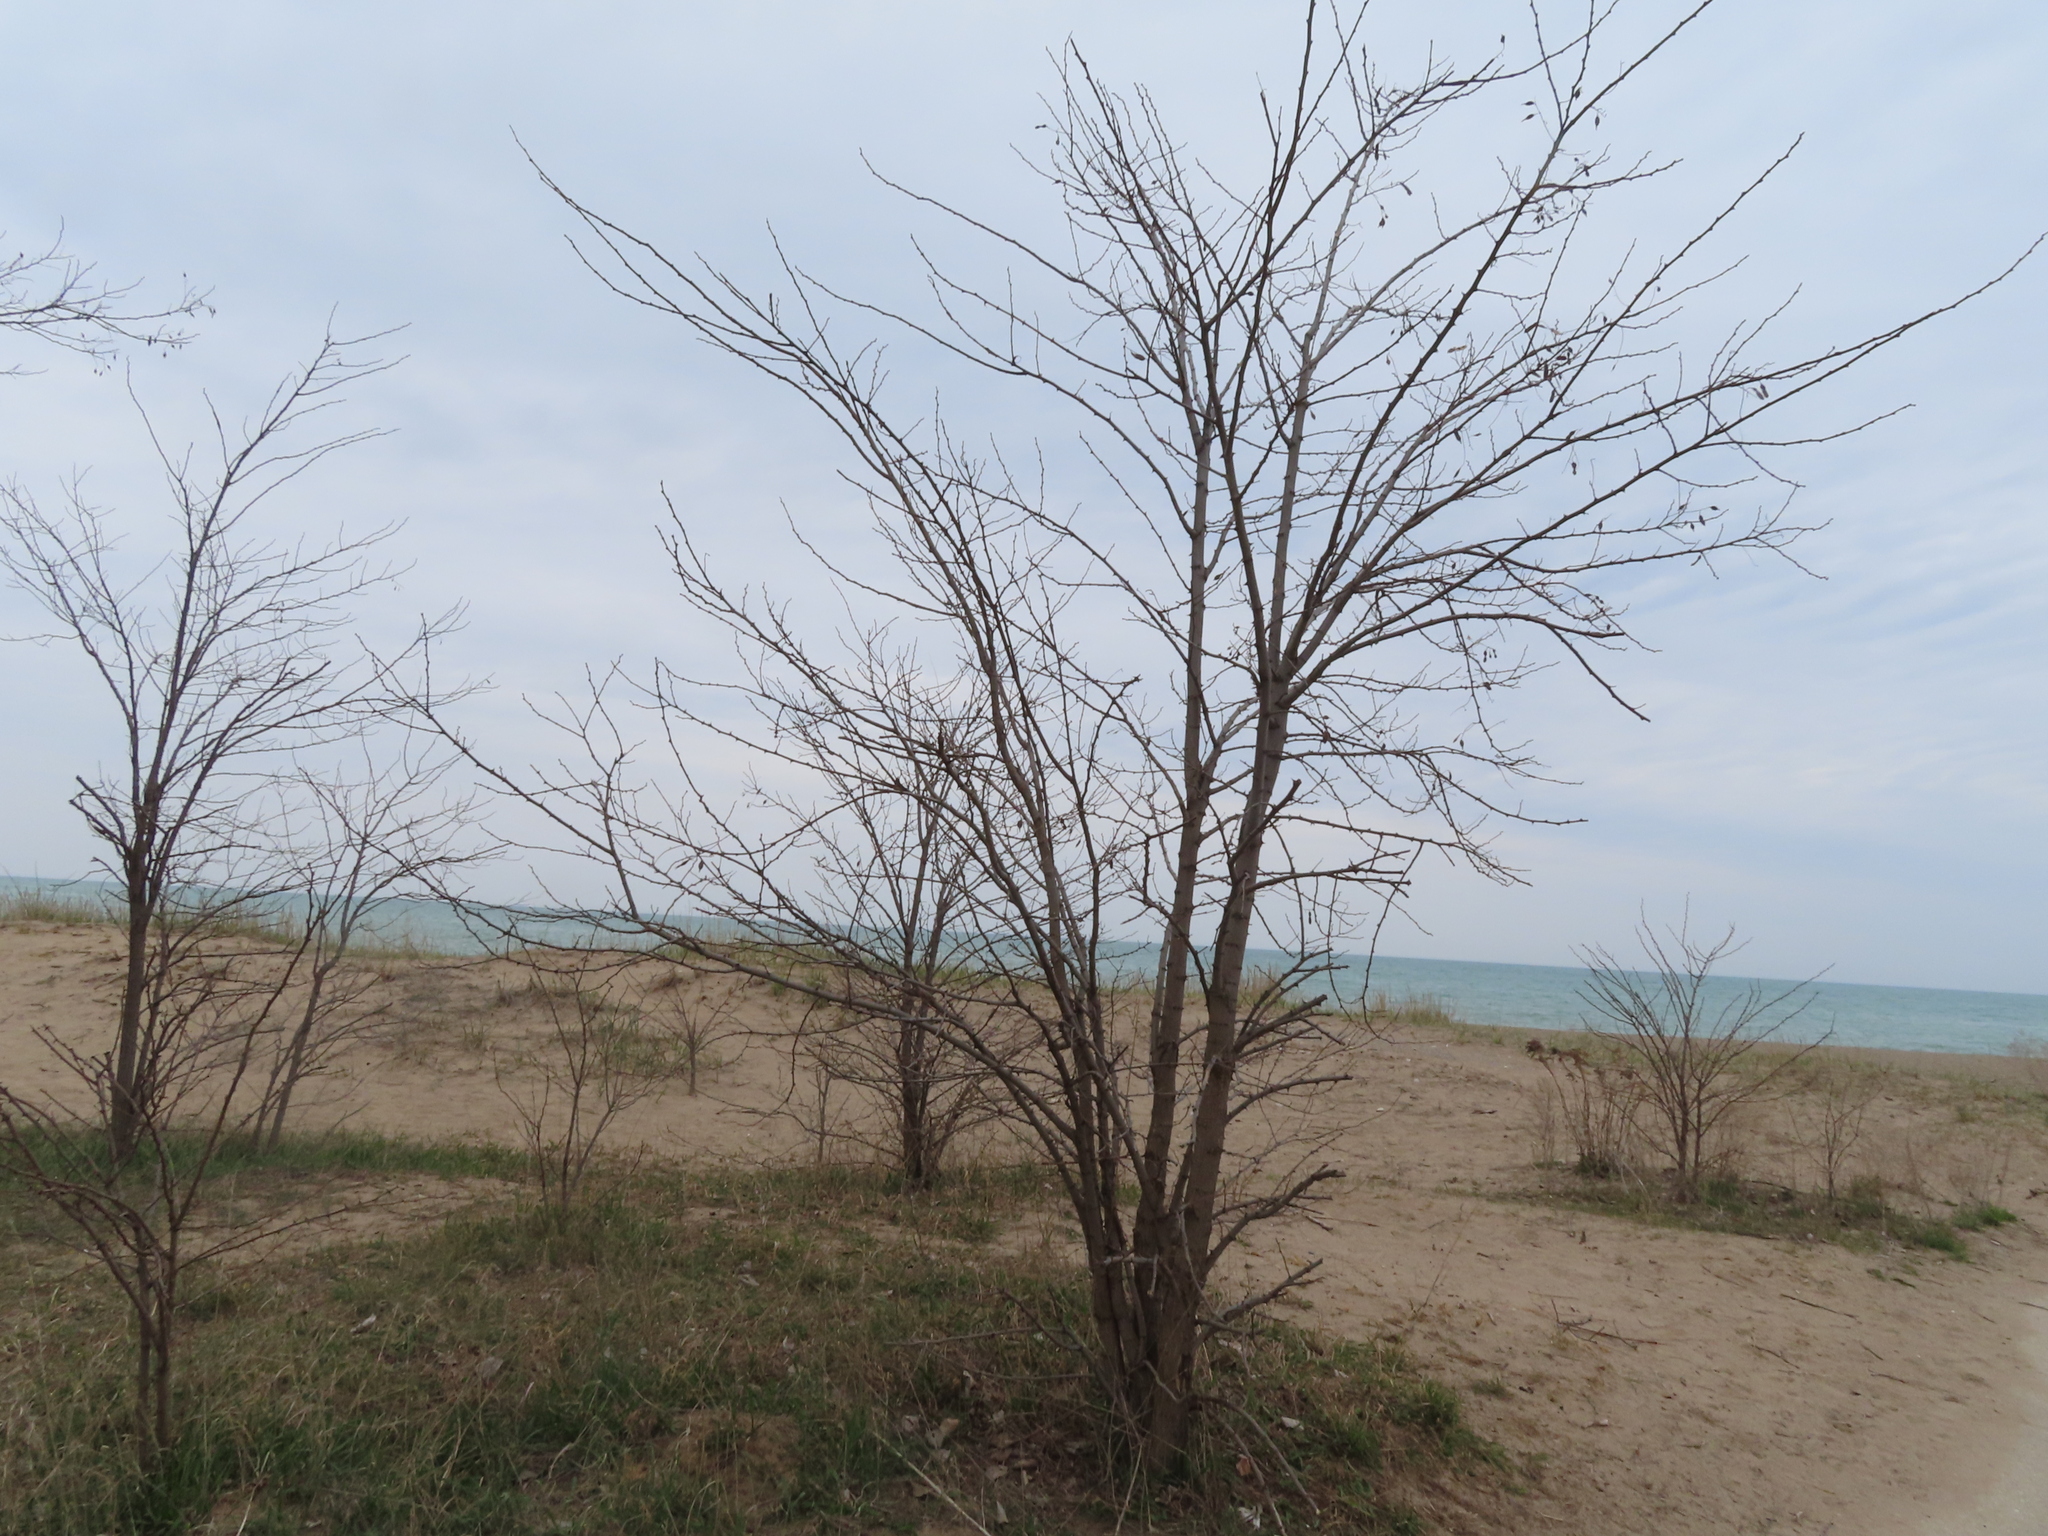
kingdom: Plantae
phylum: Tracheophyta
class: Magnoliopsida
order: Sapindales
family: Rutaceae
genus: Zanthoxylum
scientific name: Zanthoxylum americanum
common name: Northern prickly-ash
